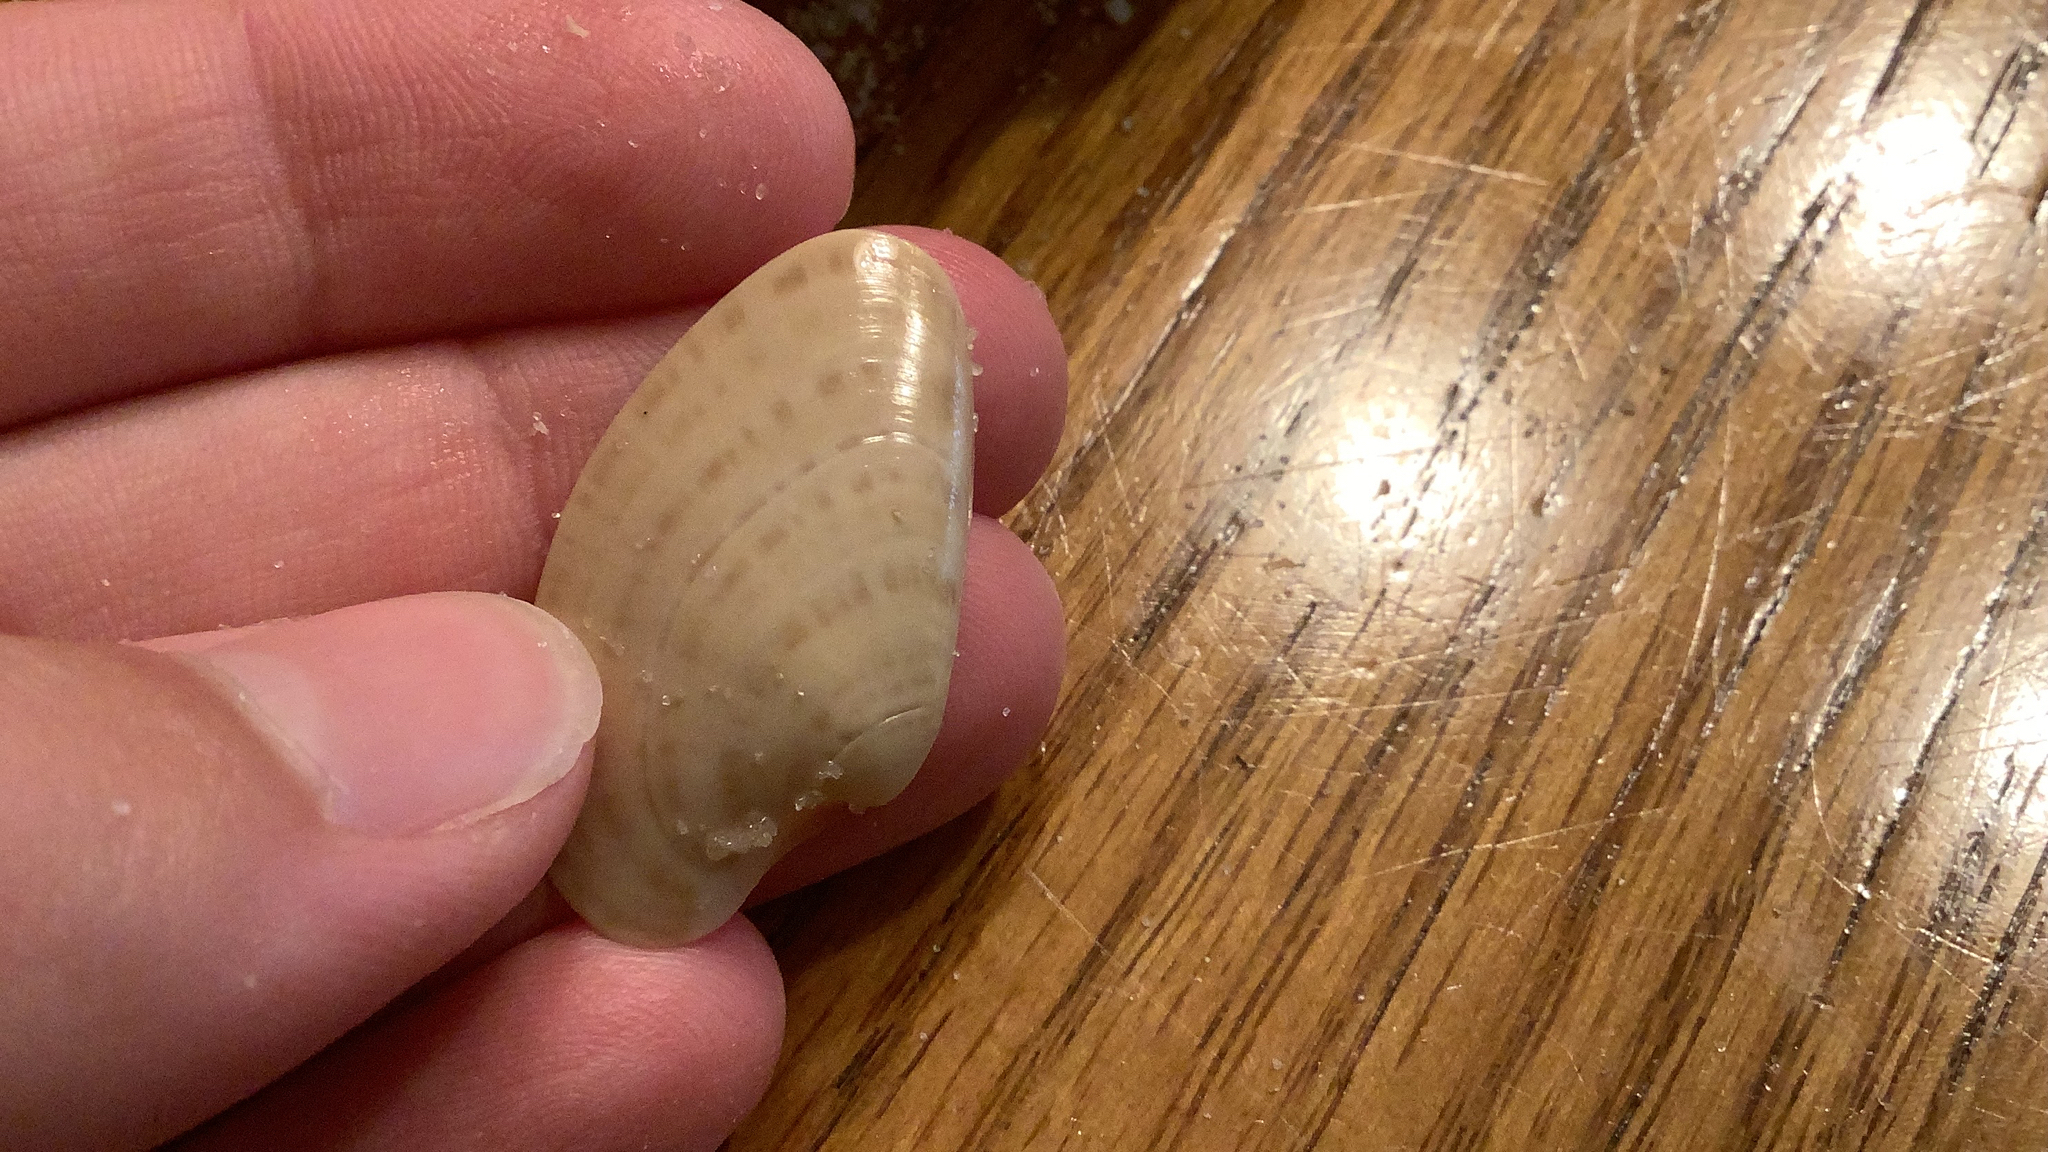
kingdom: Animalia
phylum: Mollusca
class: Bivalvia
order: Venerida
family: Veneridae
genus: Macrocallista
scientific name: Macrocallista nimbosa
